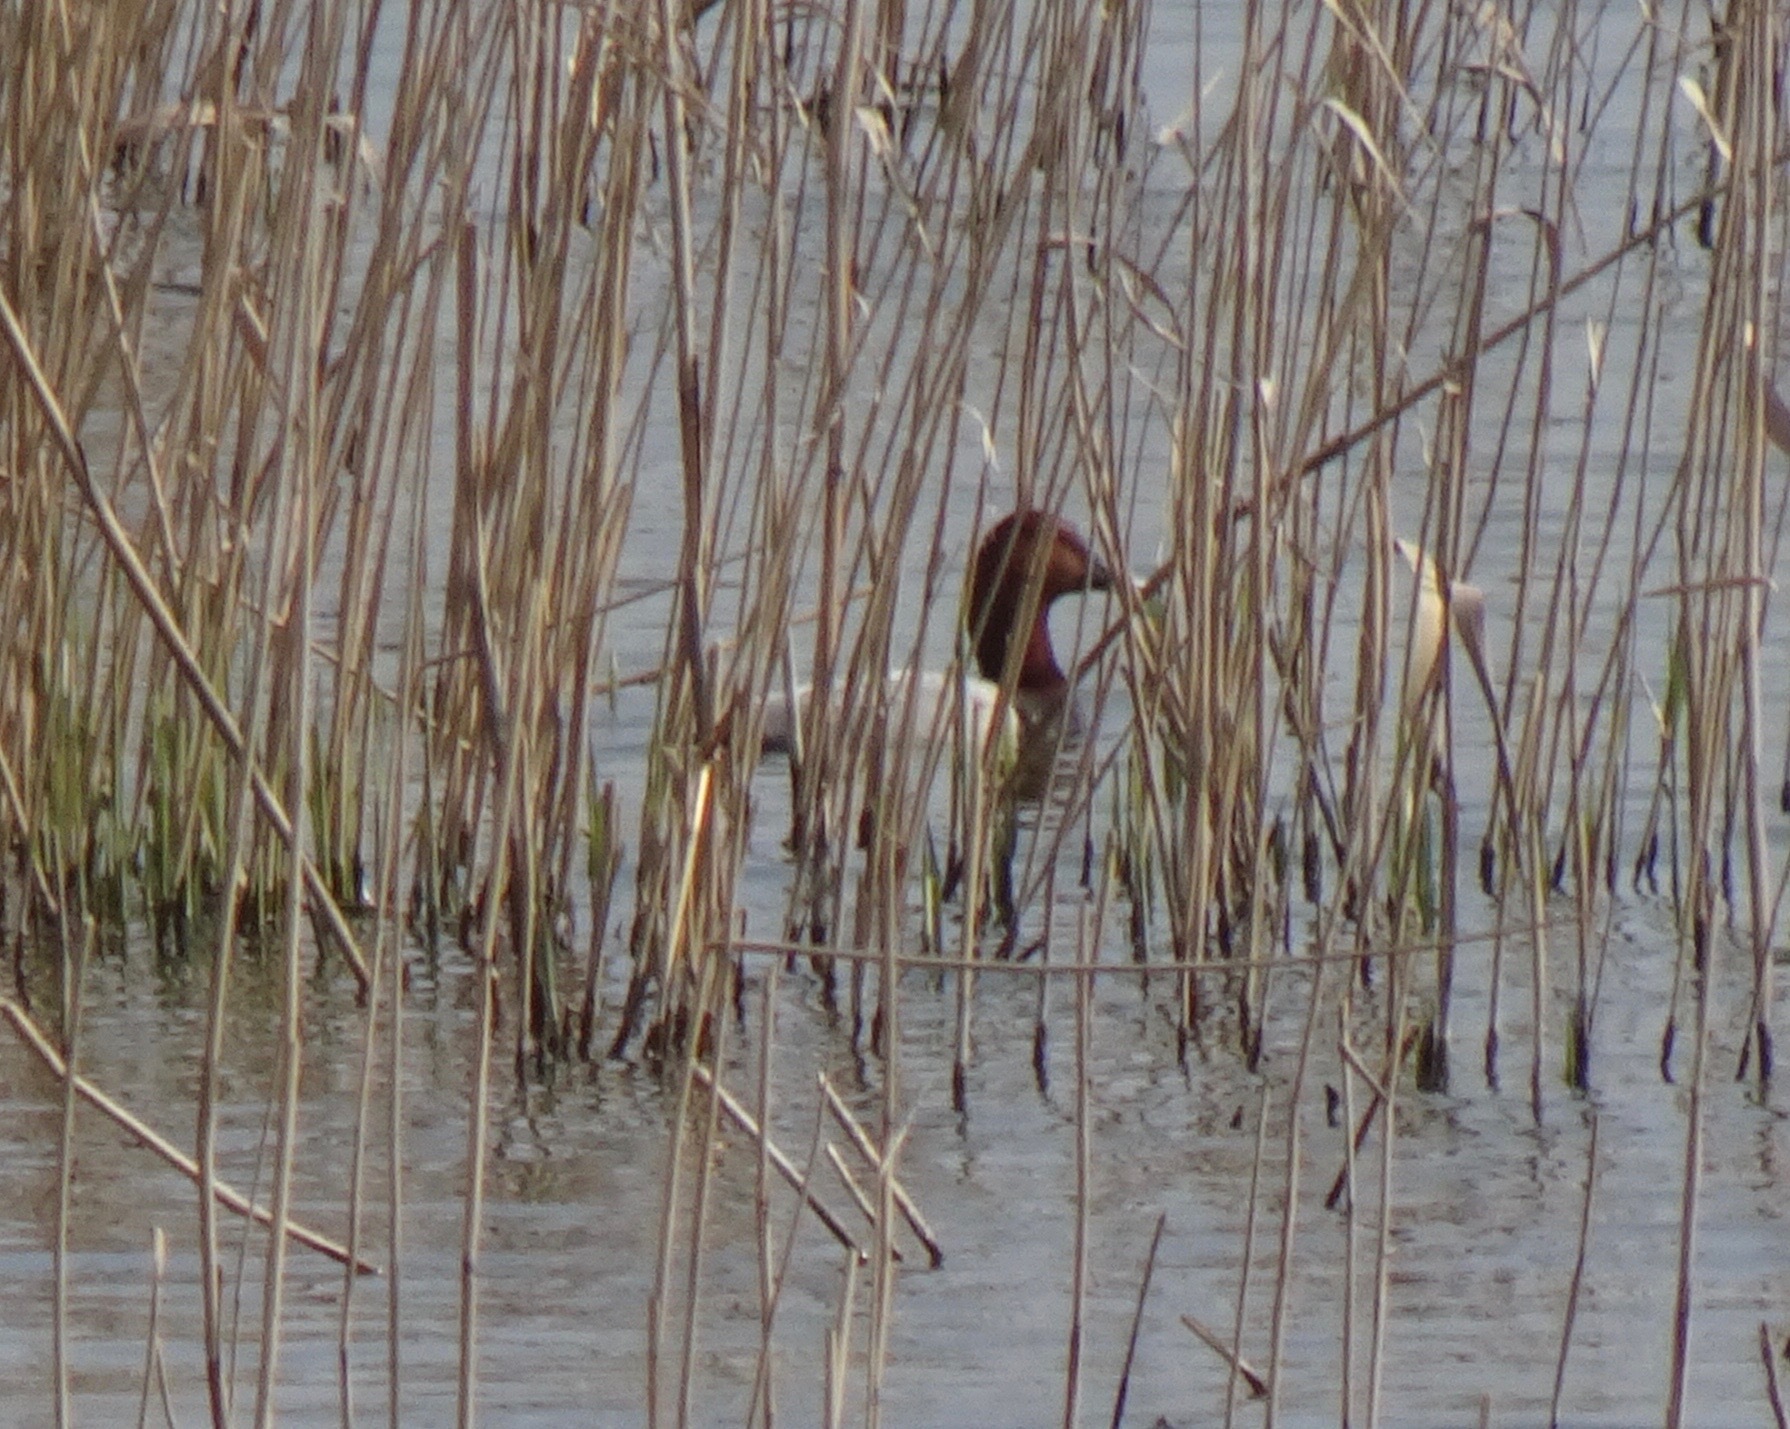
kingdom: Animalia
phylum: Chordata
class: Aves
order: Anseriformes
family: Anatidae
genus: Aythya
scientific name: Aythya ferina
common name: Common pochard
